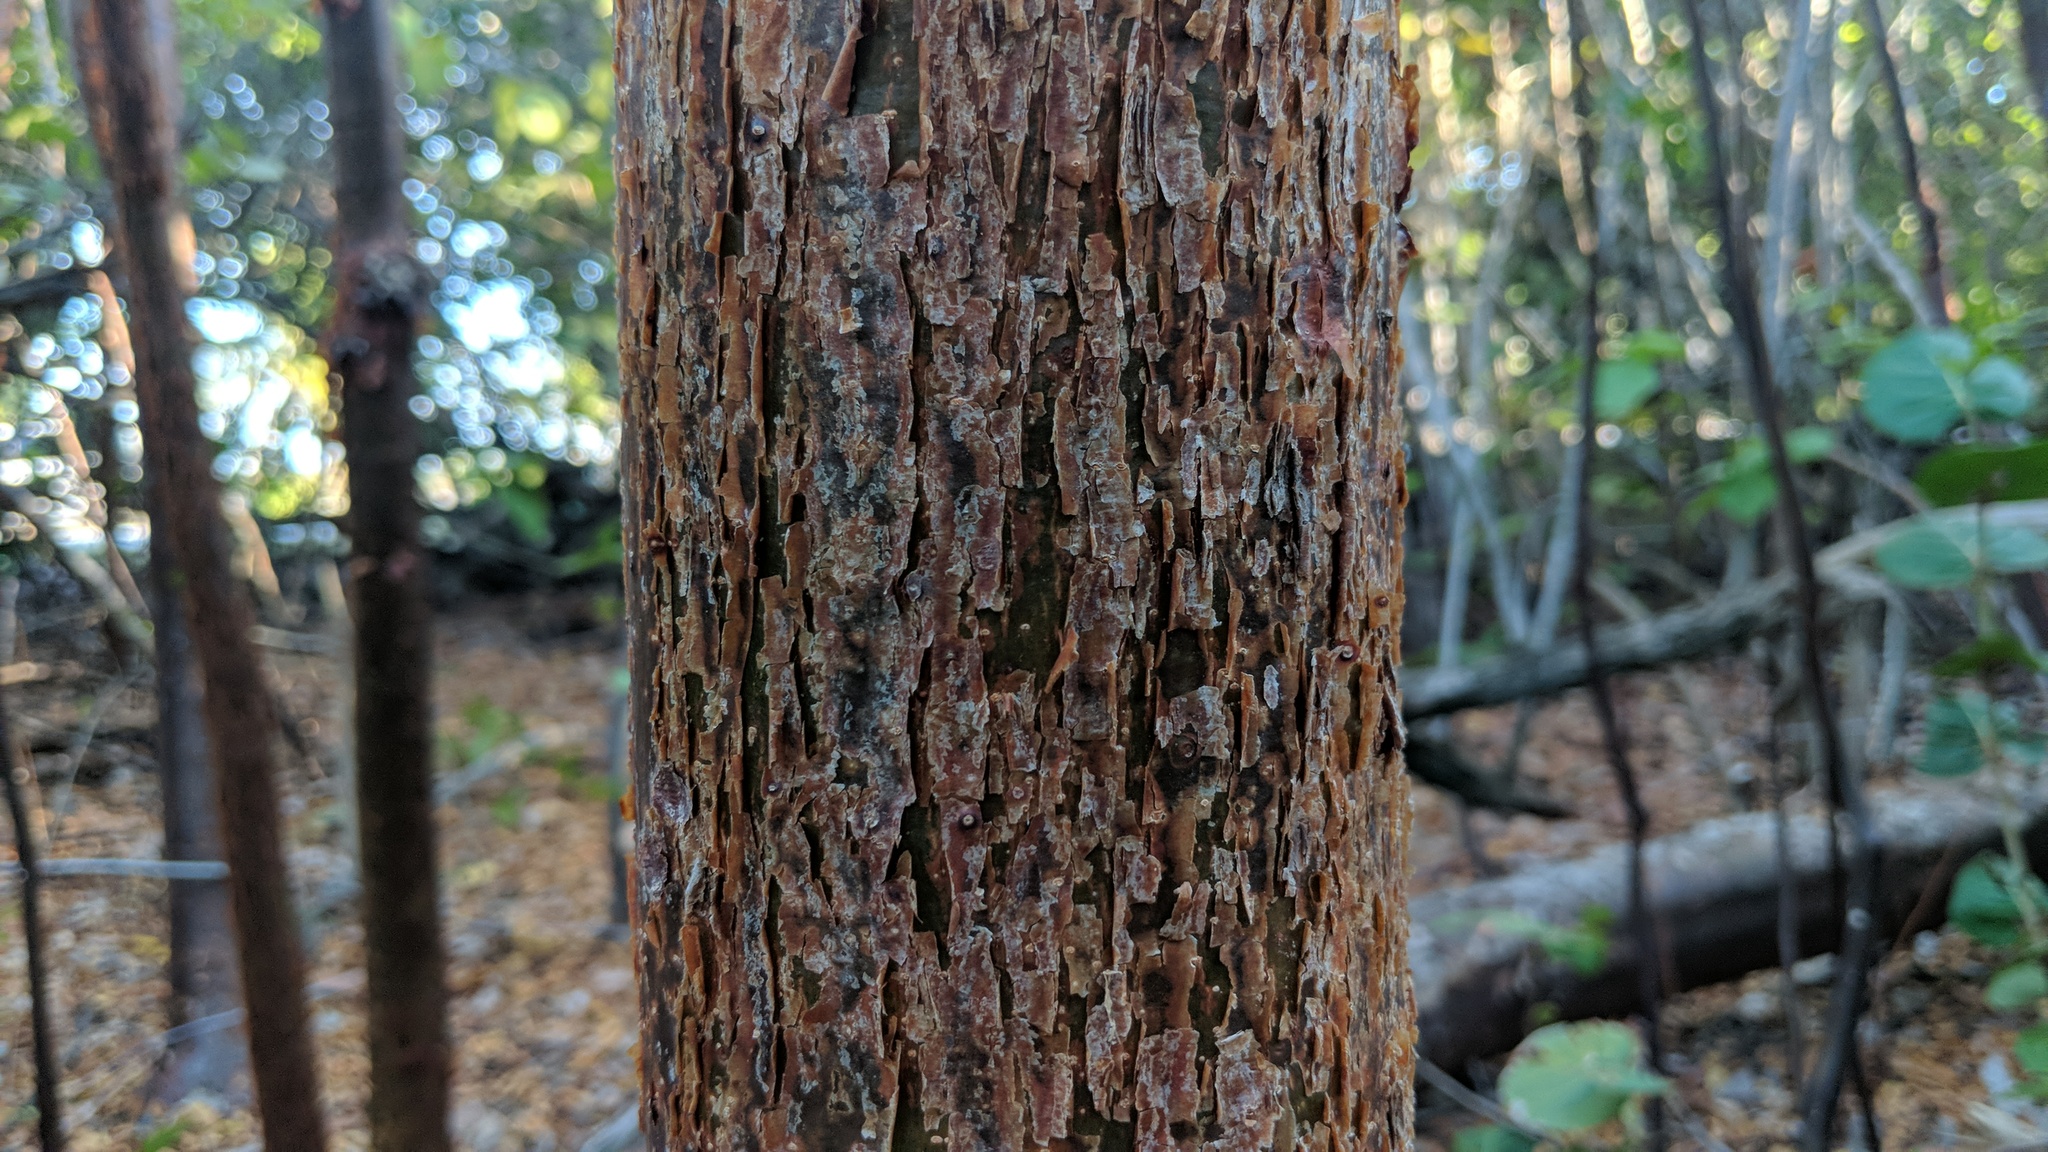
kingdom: Plantae
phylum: Tracheophyta
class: Magnoliopsida
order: Sapindales
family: Burseraceae
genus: Bursera
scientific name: Bursera simaruba
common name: Turpentine tree
